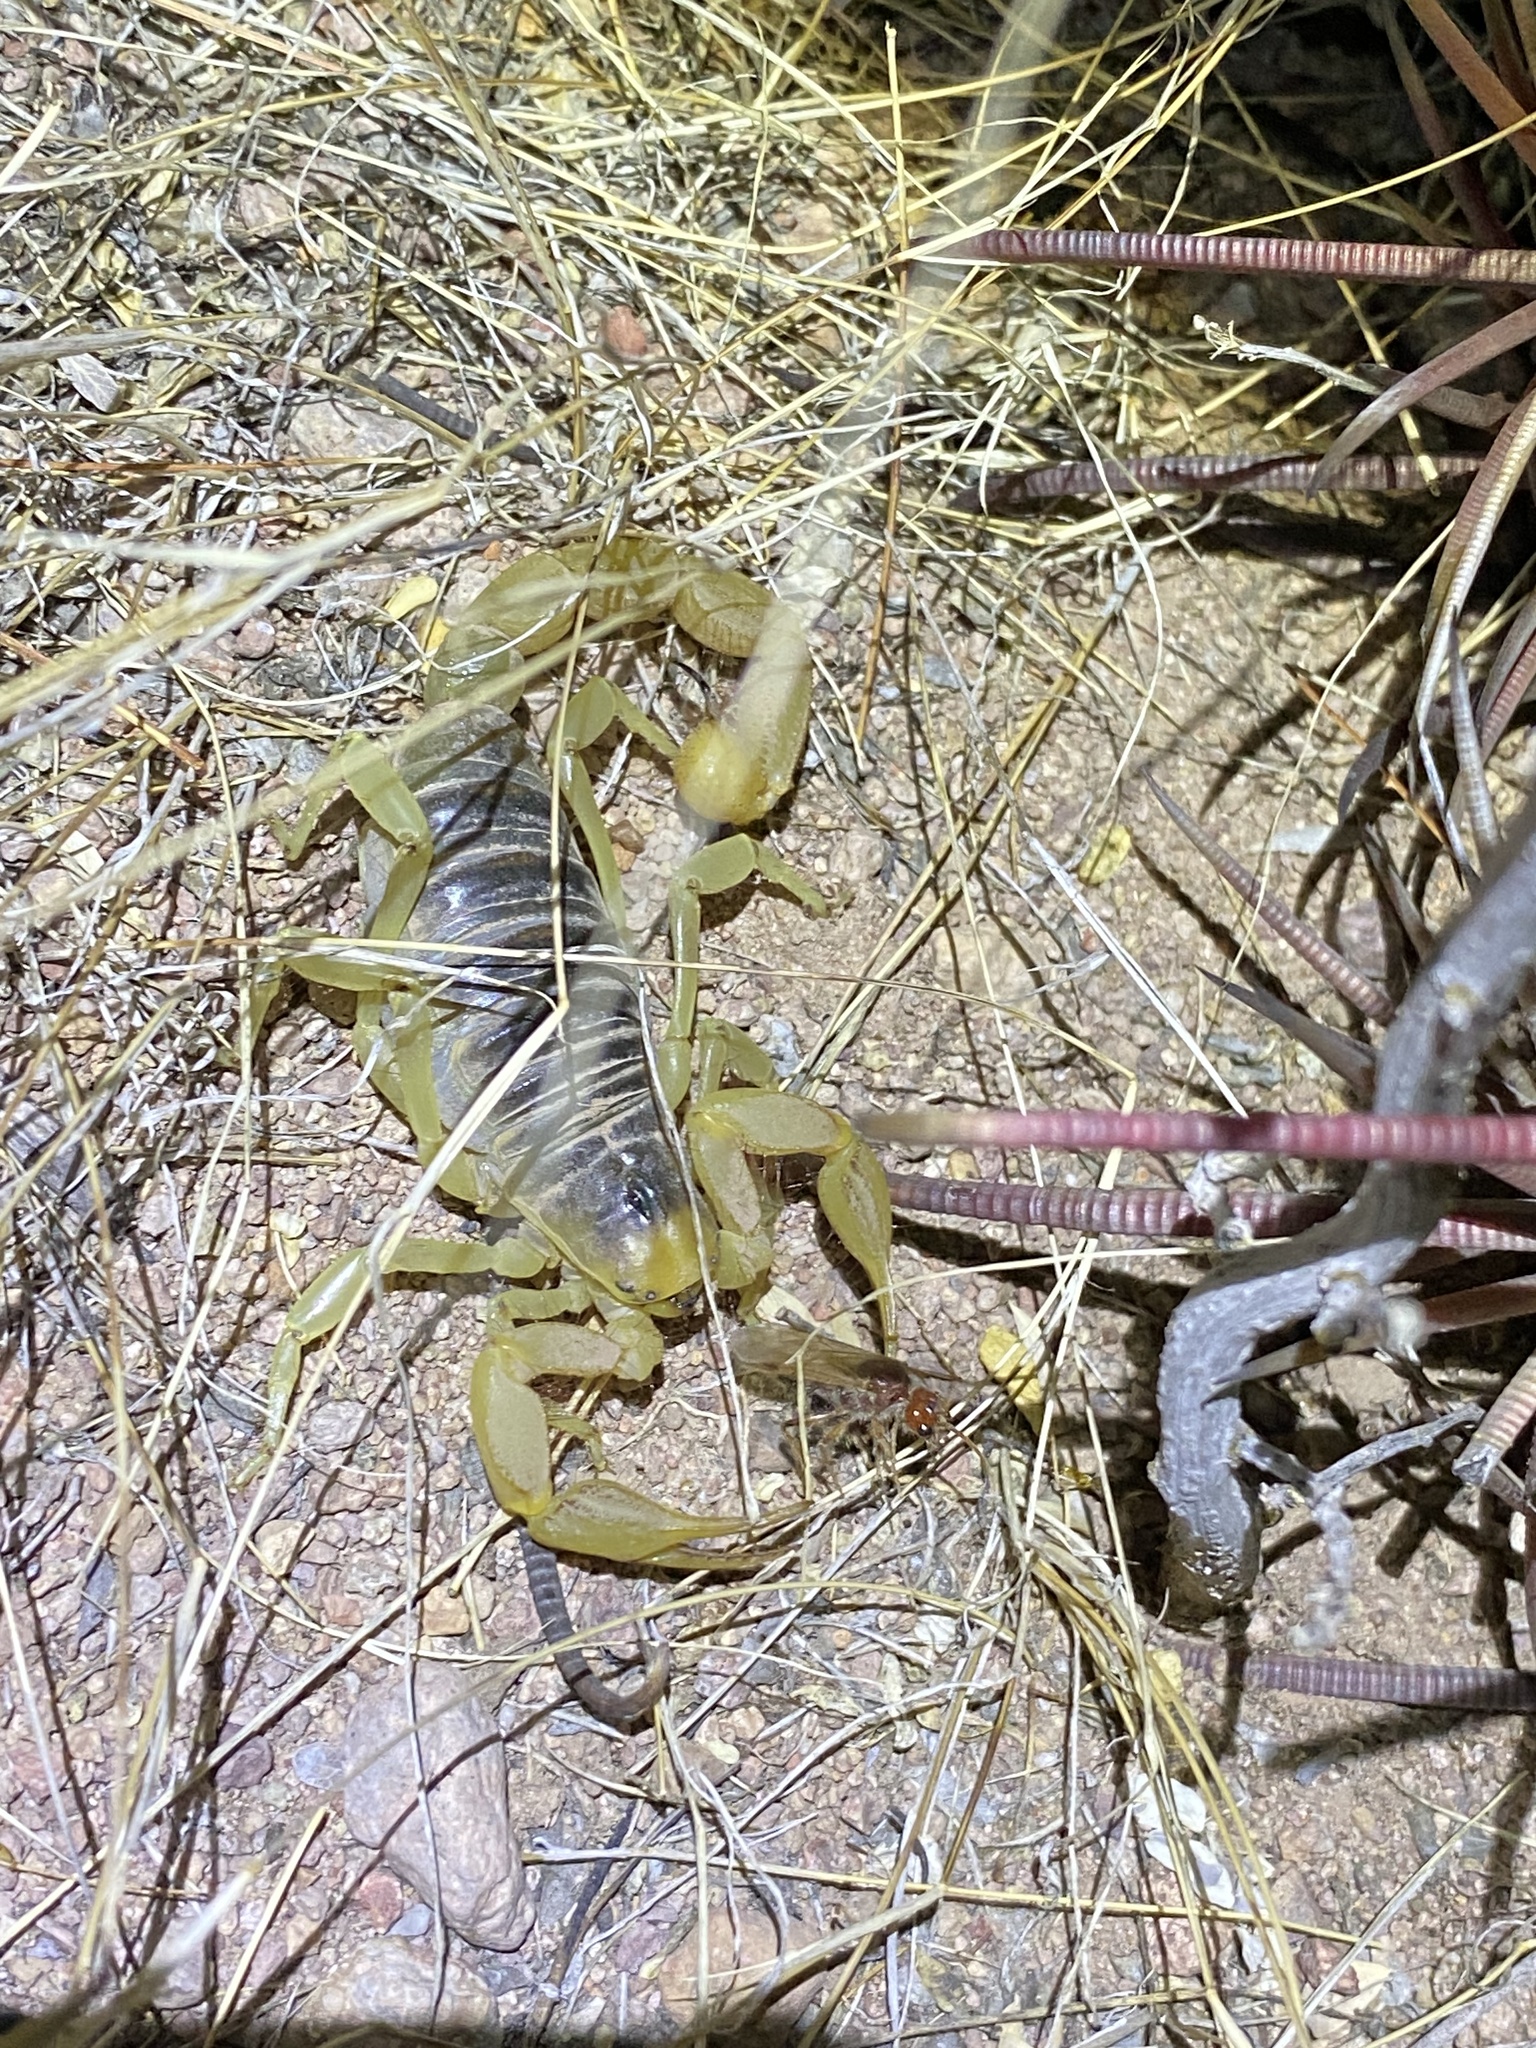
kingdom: Animalia
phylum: Arthropoda
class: Arachnida
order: Scorpiones
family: Hadruridae
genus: Hadrurus
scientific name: Hadrurus arizonensis
